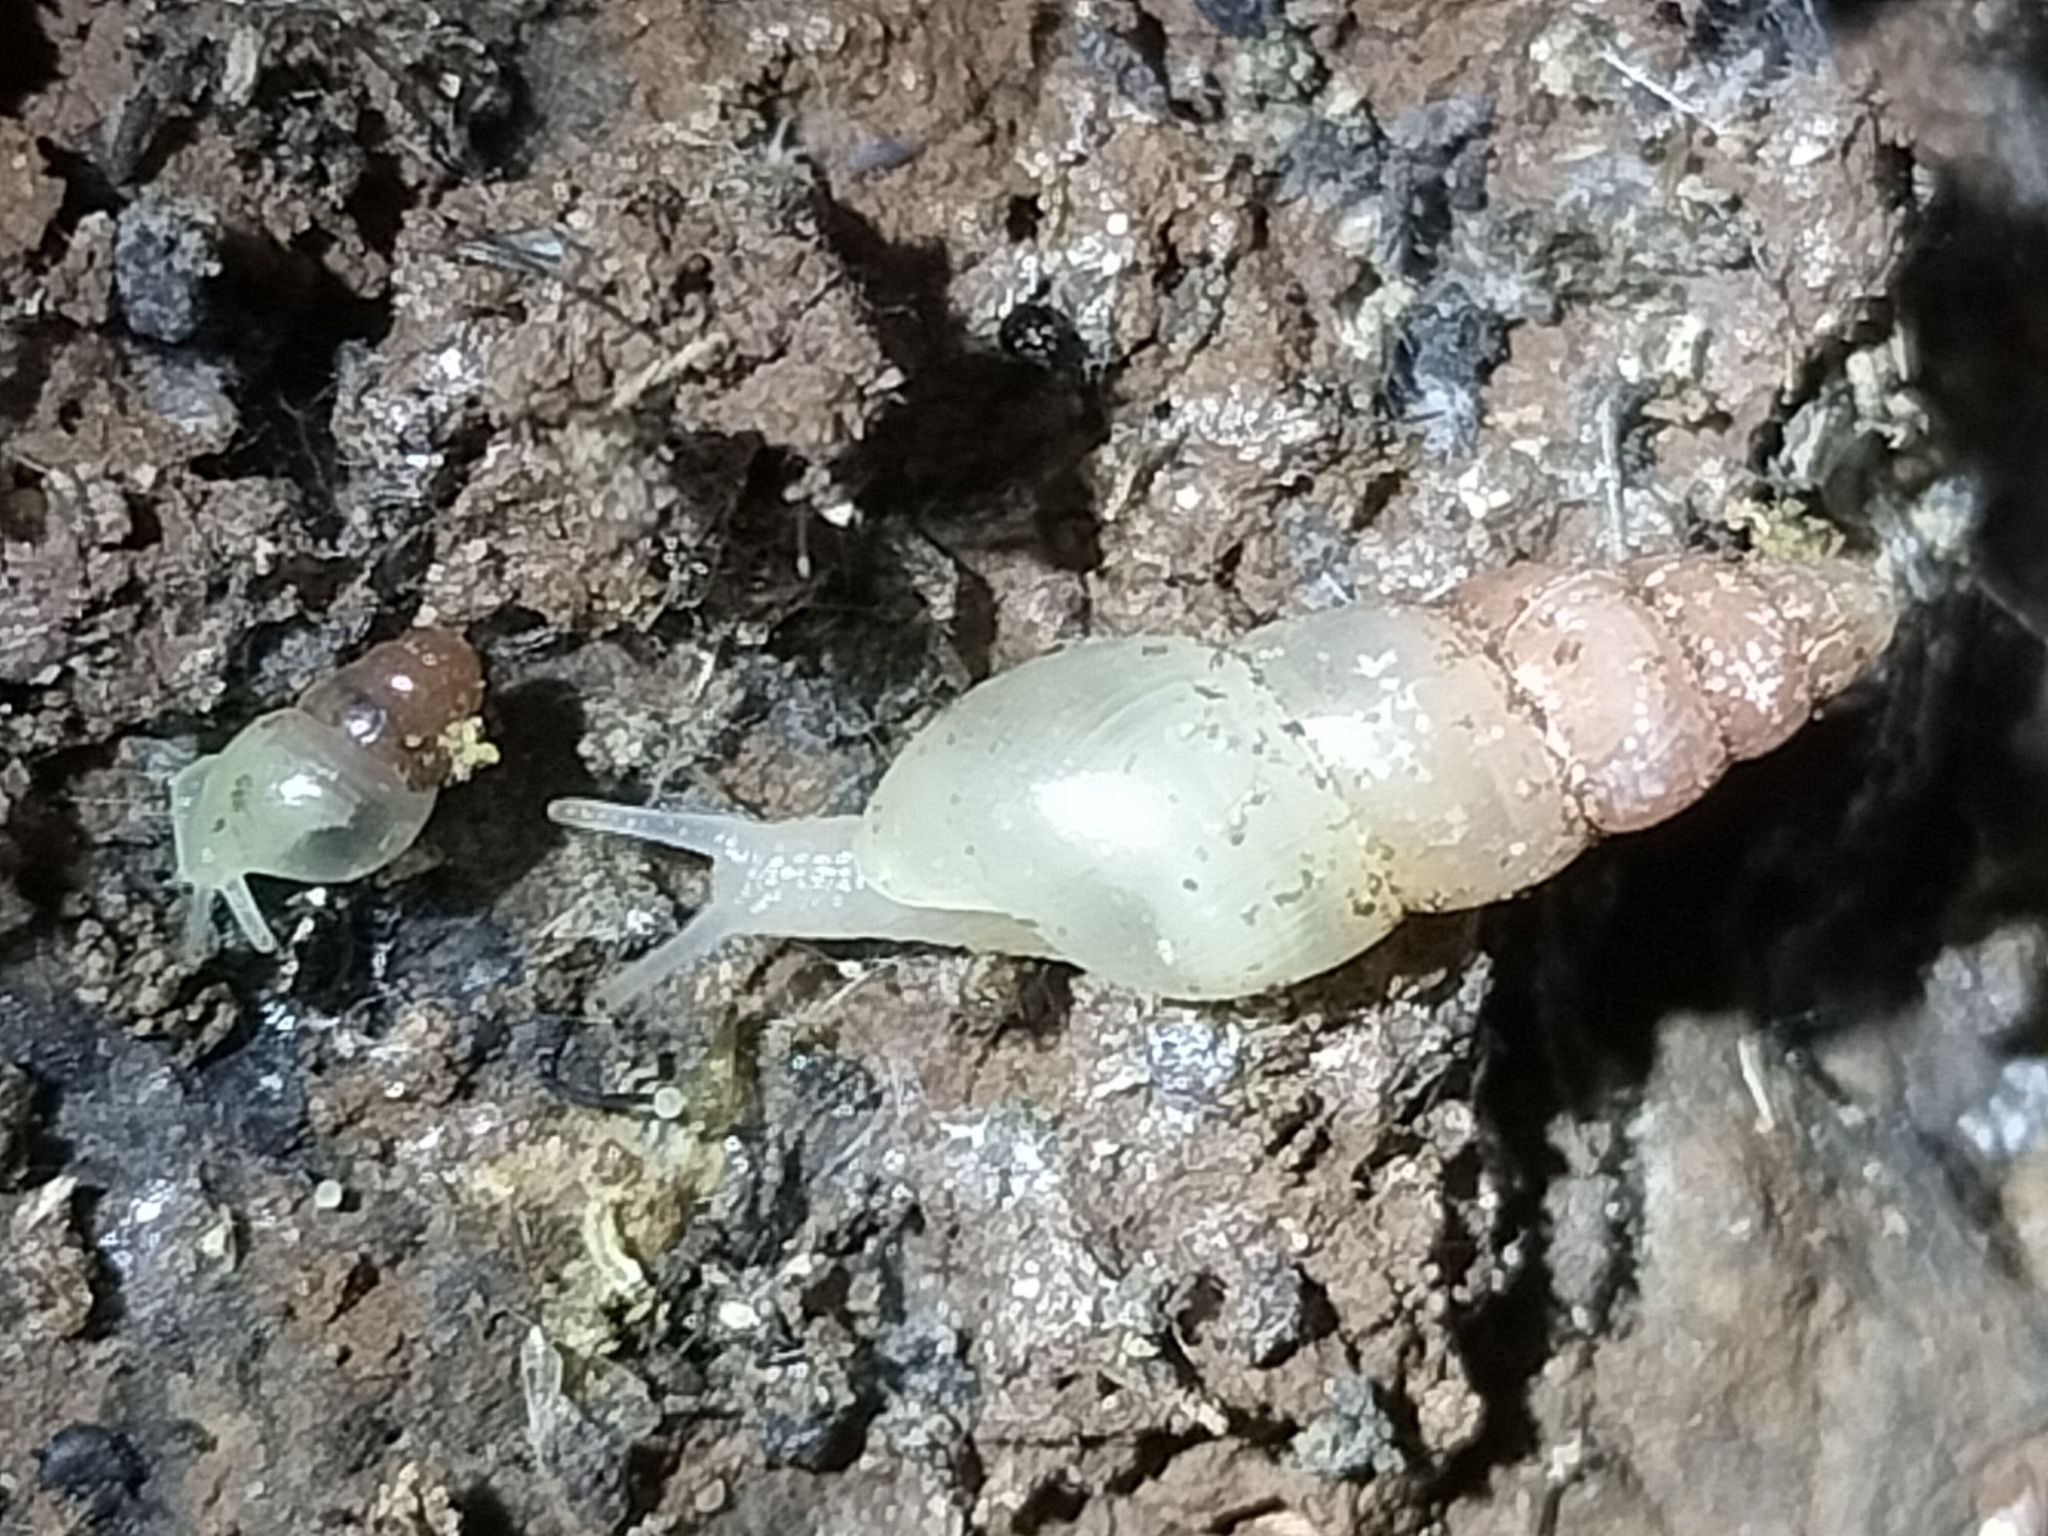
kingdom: Animalia
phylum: Mollusca
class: Gastropoda
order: Stylommatophora
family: Achatinidae
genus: Allopeas
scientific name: Allopeas clavulinum
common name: Spike awlsnail
